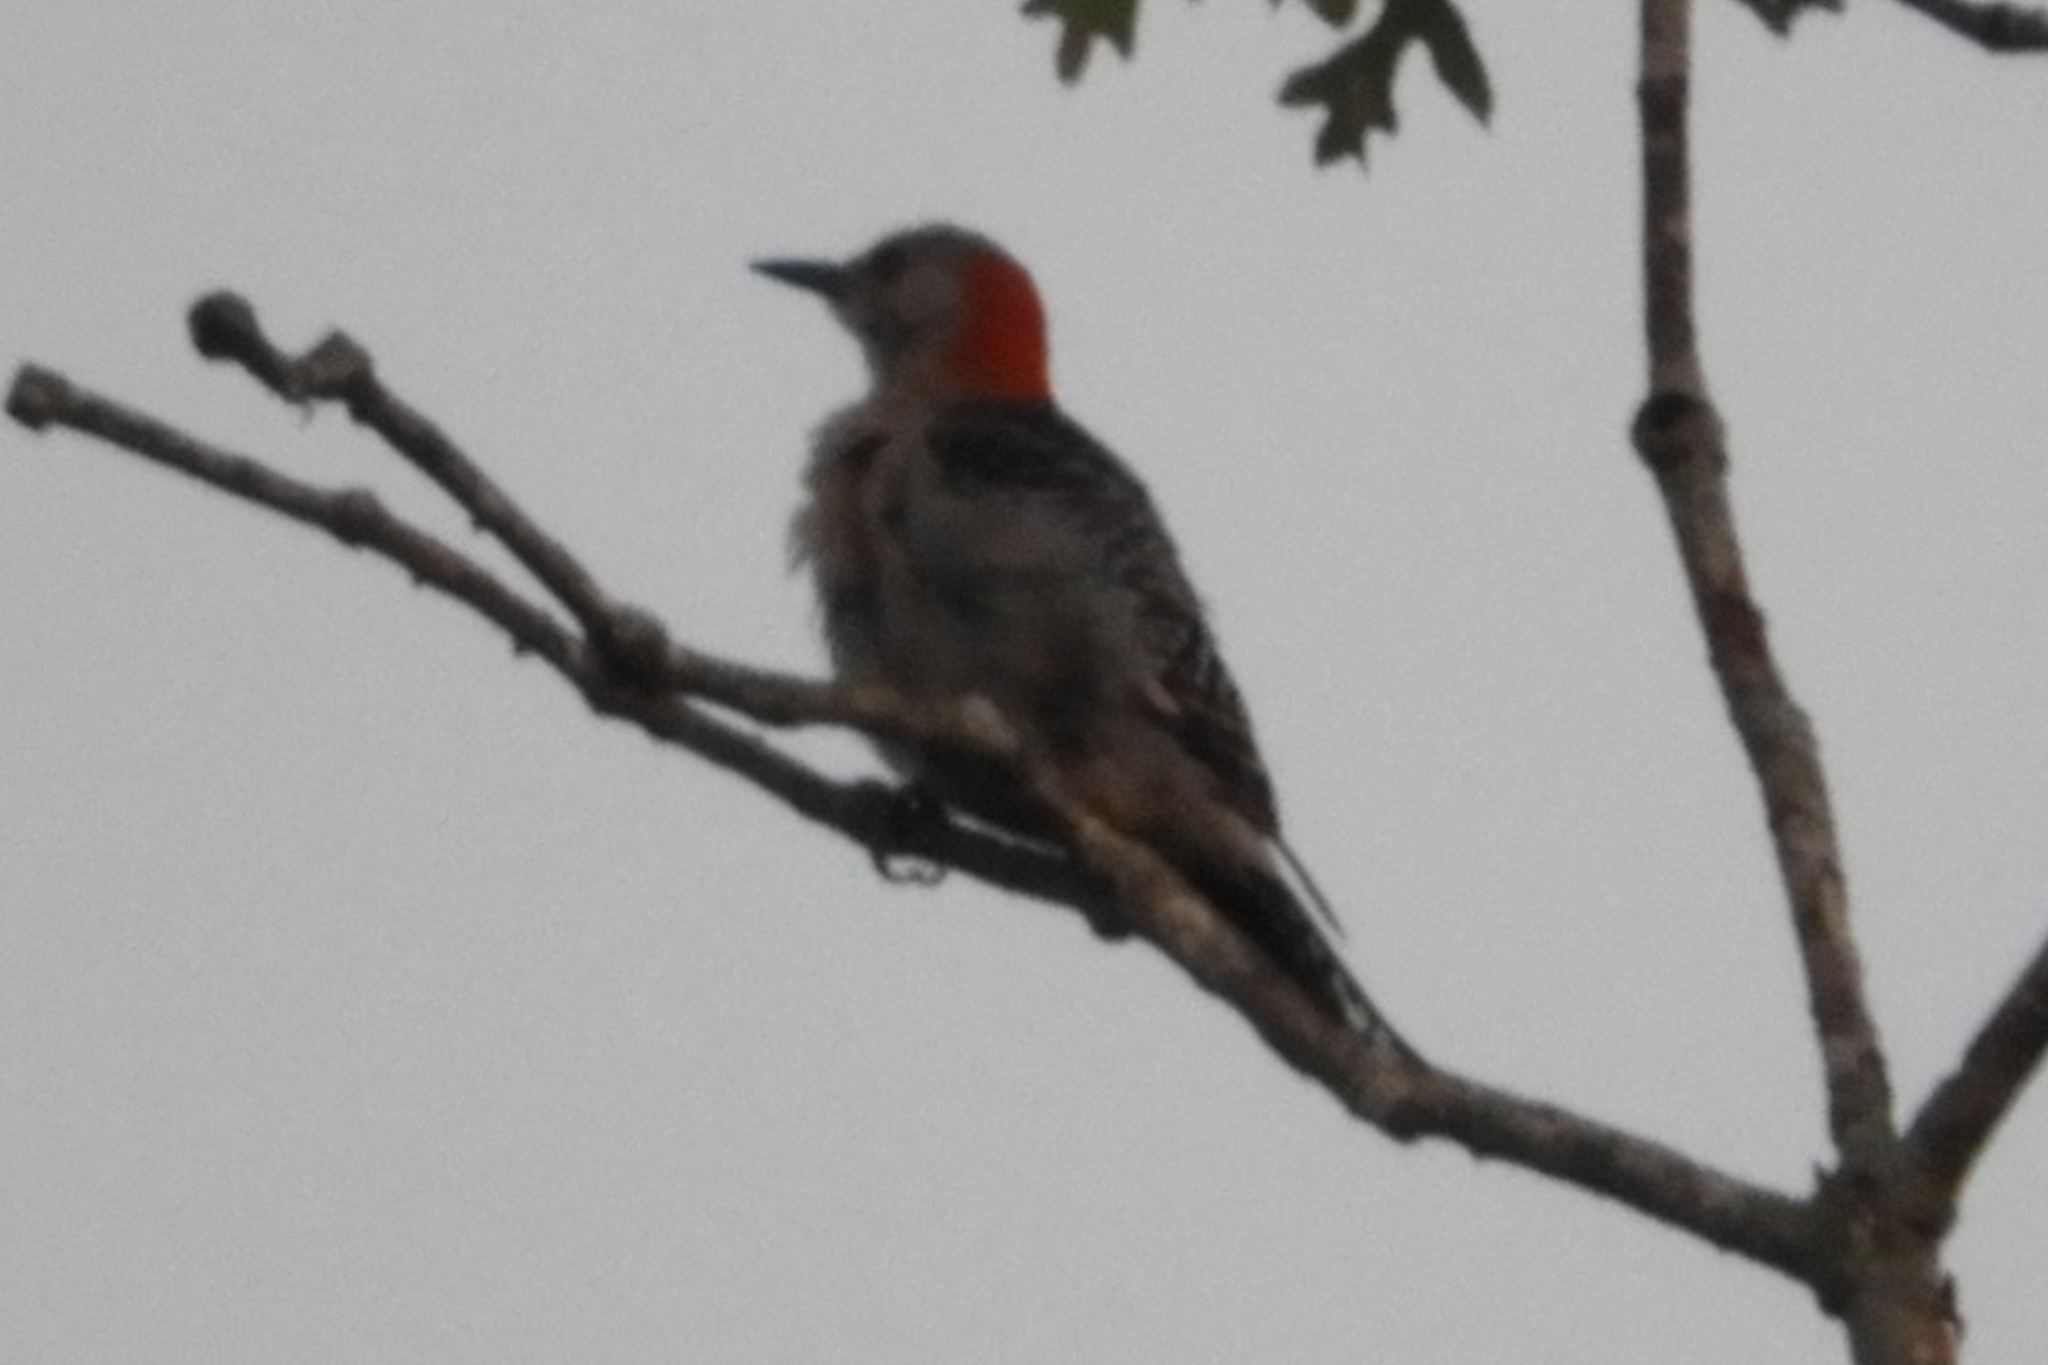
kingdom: Animalia
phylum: Chordata
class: Aves
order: Piciformes
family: Picidae
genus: Melanerpes
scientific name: Melanerpes carolinus
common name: Red-bellied woodpecker
